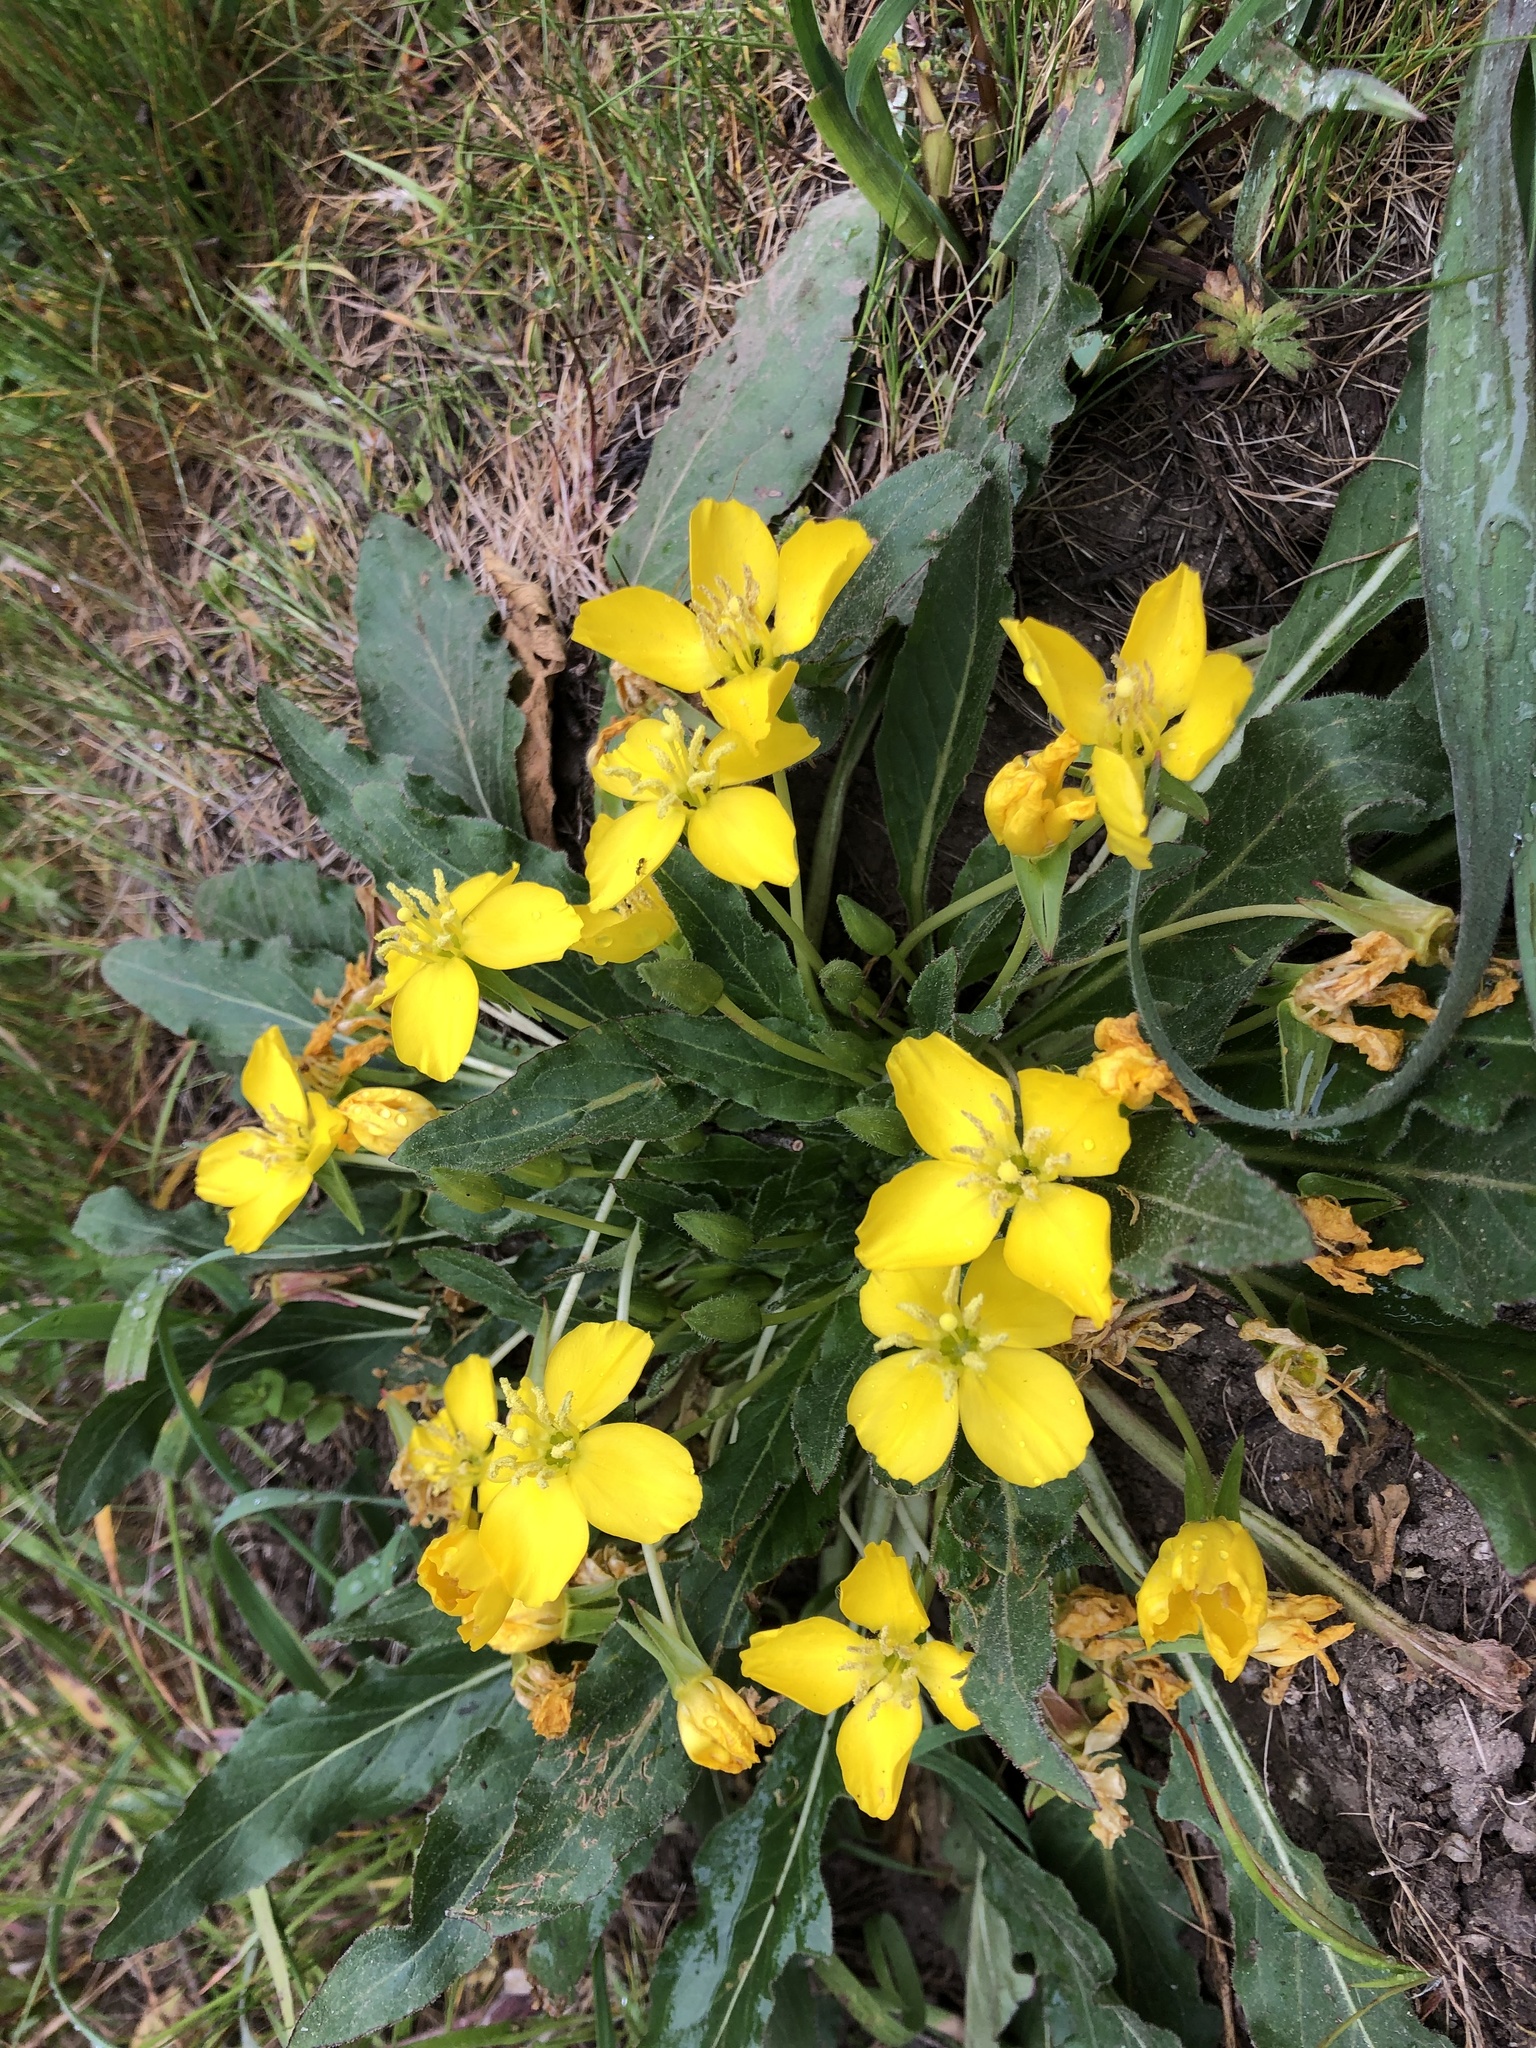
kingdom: Plantae
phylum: Tracheophyta
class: Magnoliopsida
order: Myrtales
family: Onagraceae
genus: Taraxia
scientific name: Taraxia ovata
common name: Goldeneggs
